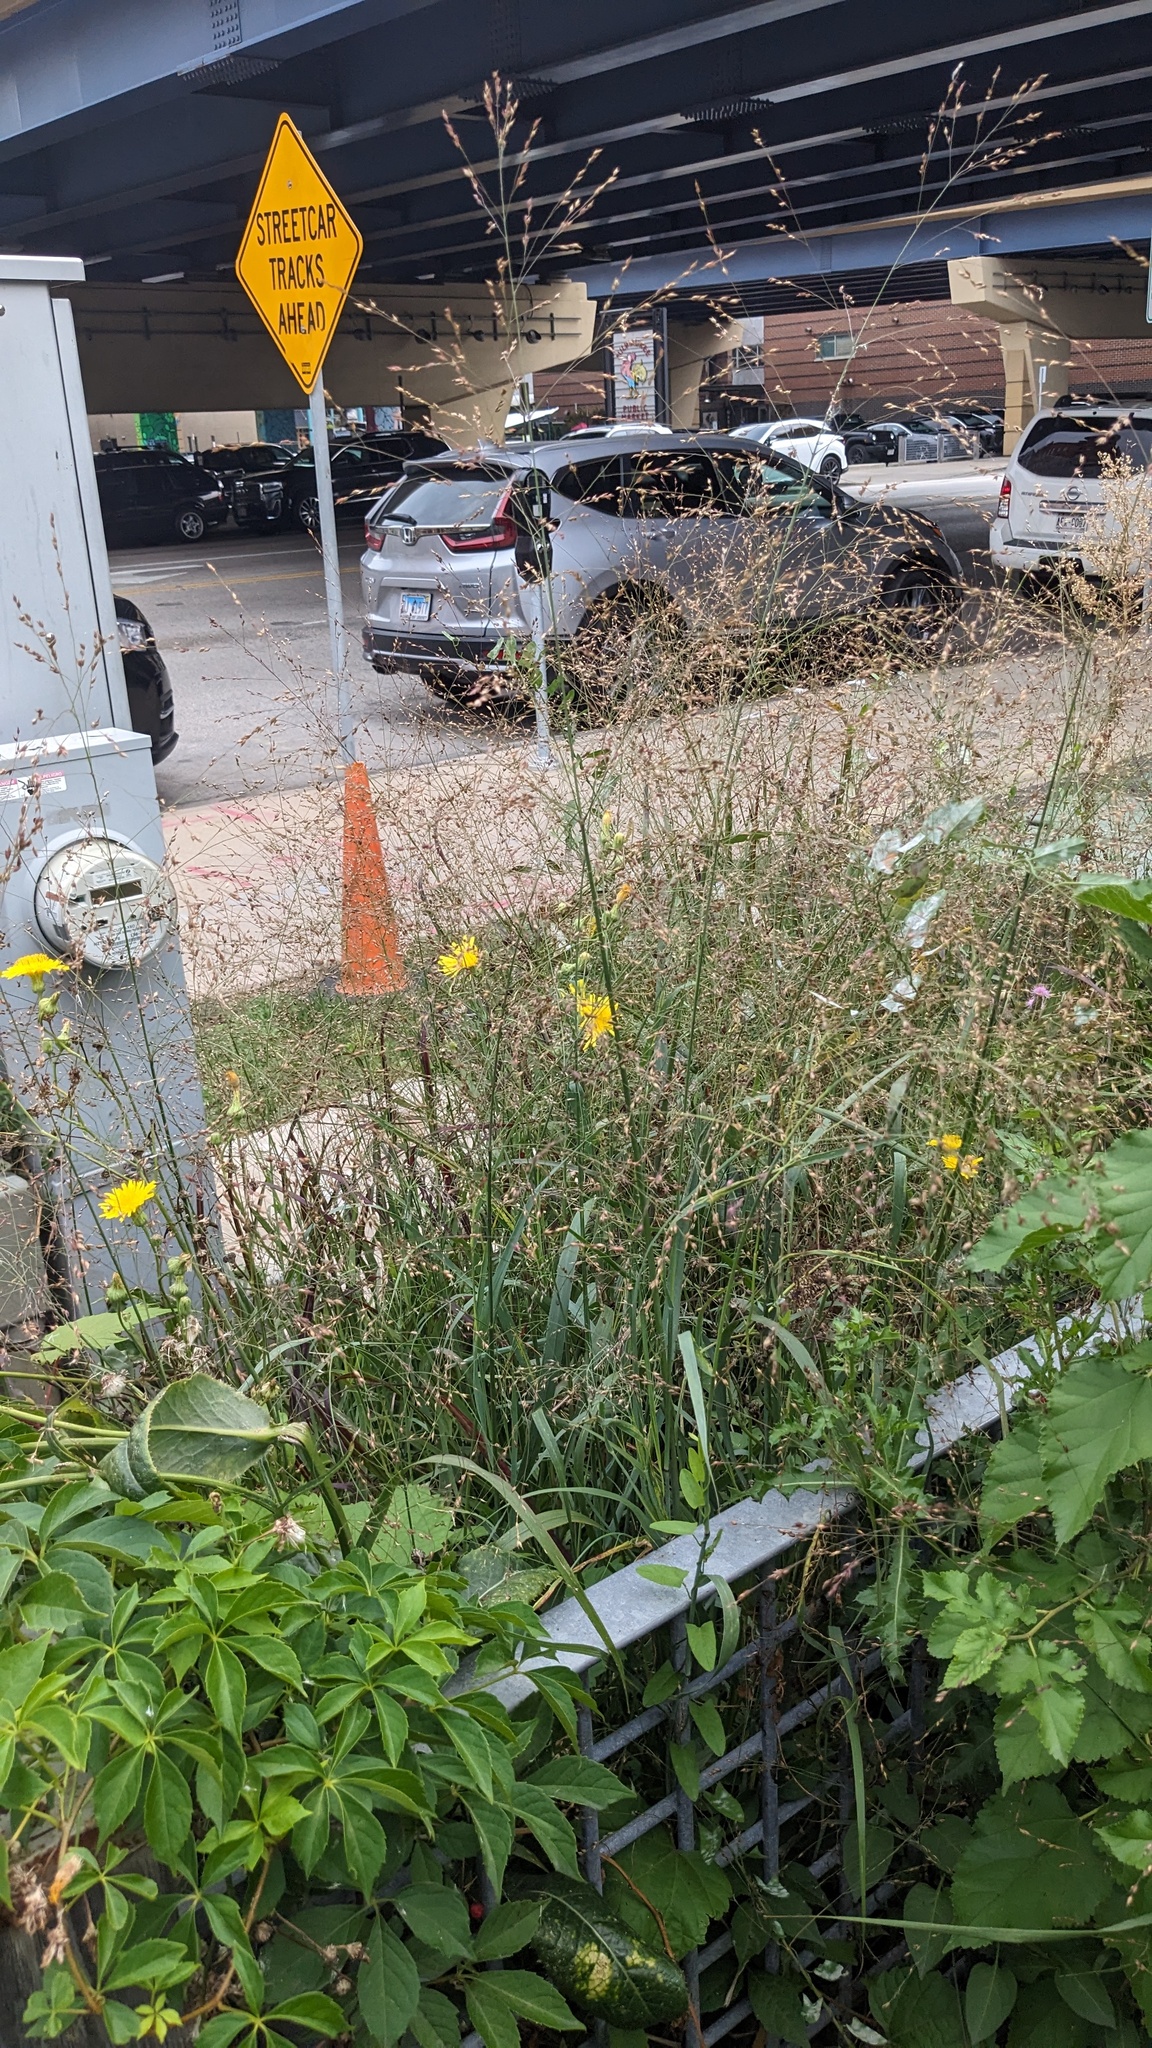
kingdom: Plantae
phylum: Tracheophyta
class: Liliopsida
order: Poales
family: Poaceae
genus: Panicum
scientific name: Panicum virgatum
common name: Switchgrass
